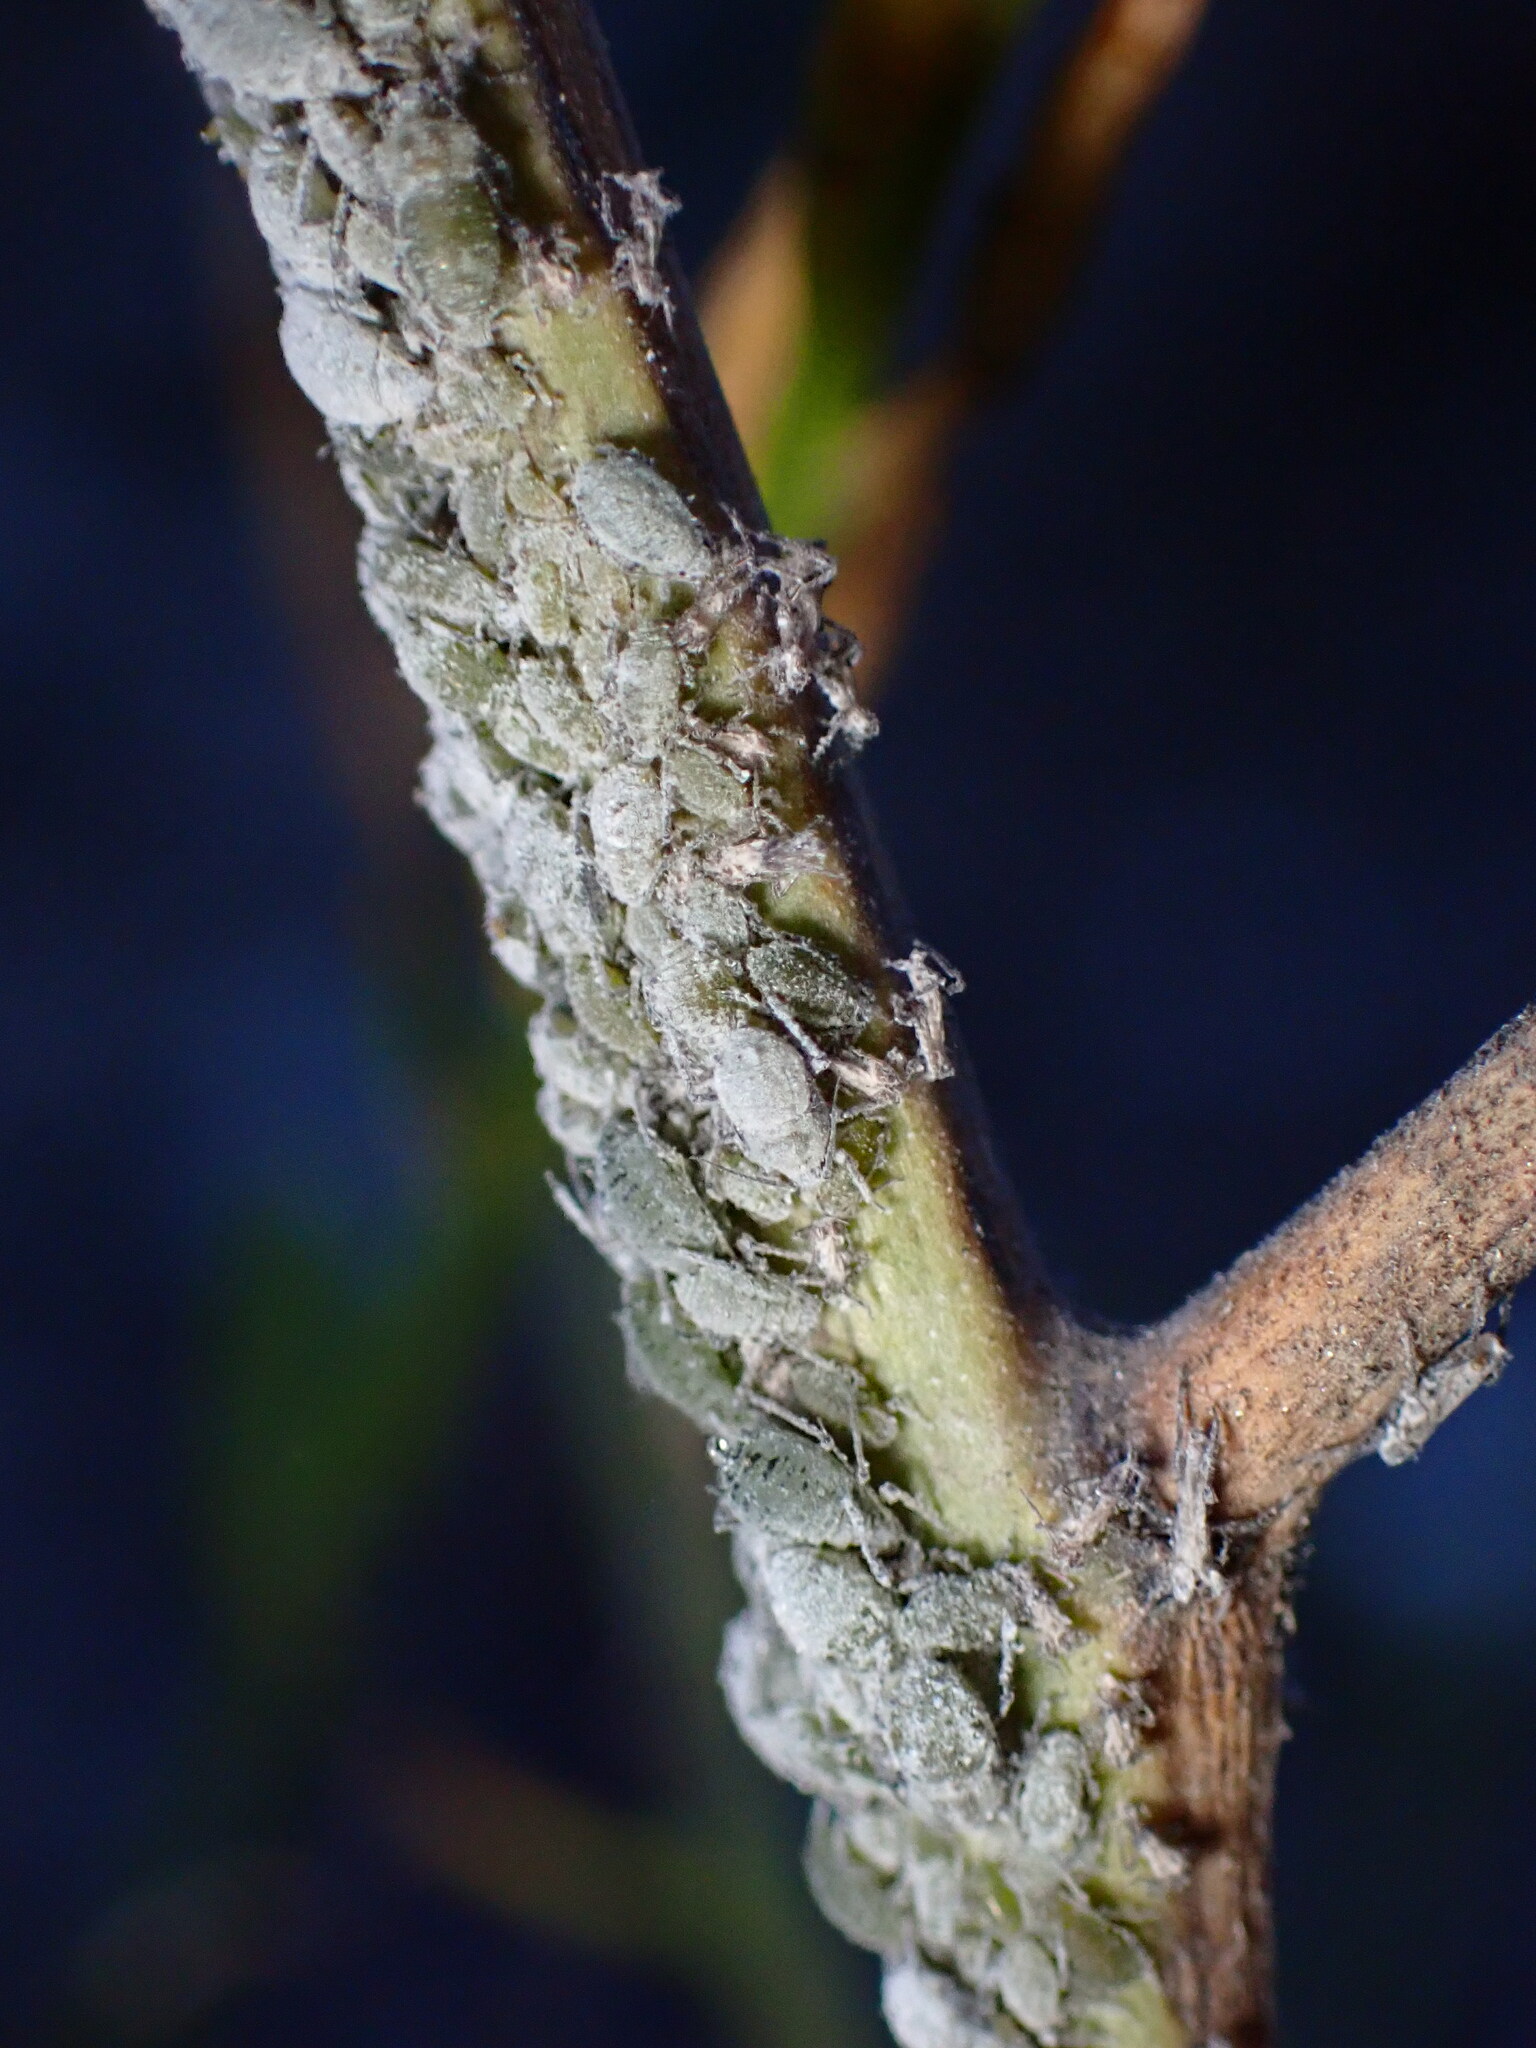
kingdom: Animalia
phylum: Arthropoda
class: Insecta
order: Hemiptera
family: Aphididae
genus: Brevicoryne
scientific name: Brevicoryne brassicae
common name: Cabbage aphid
